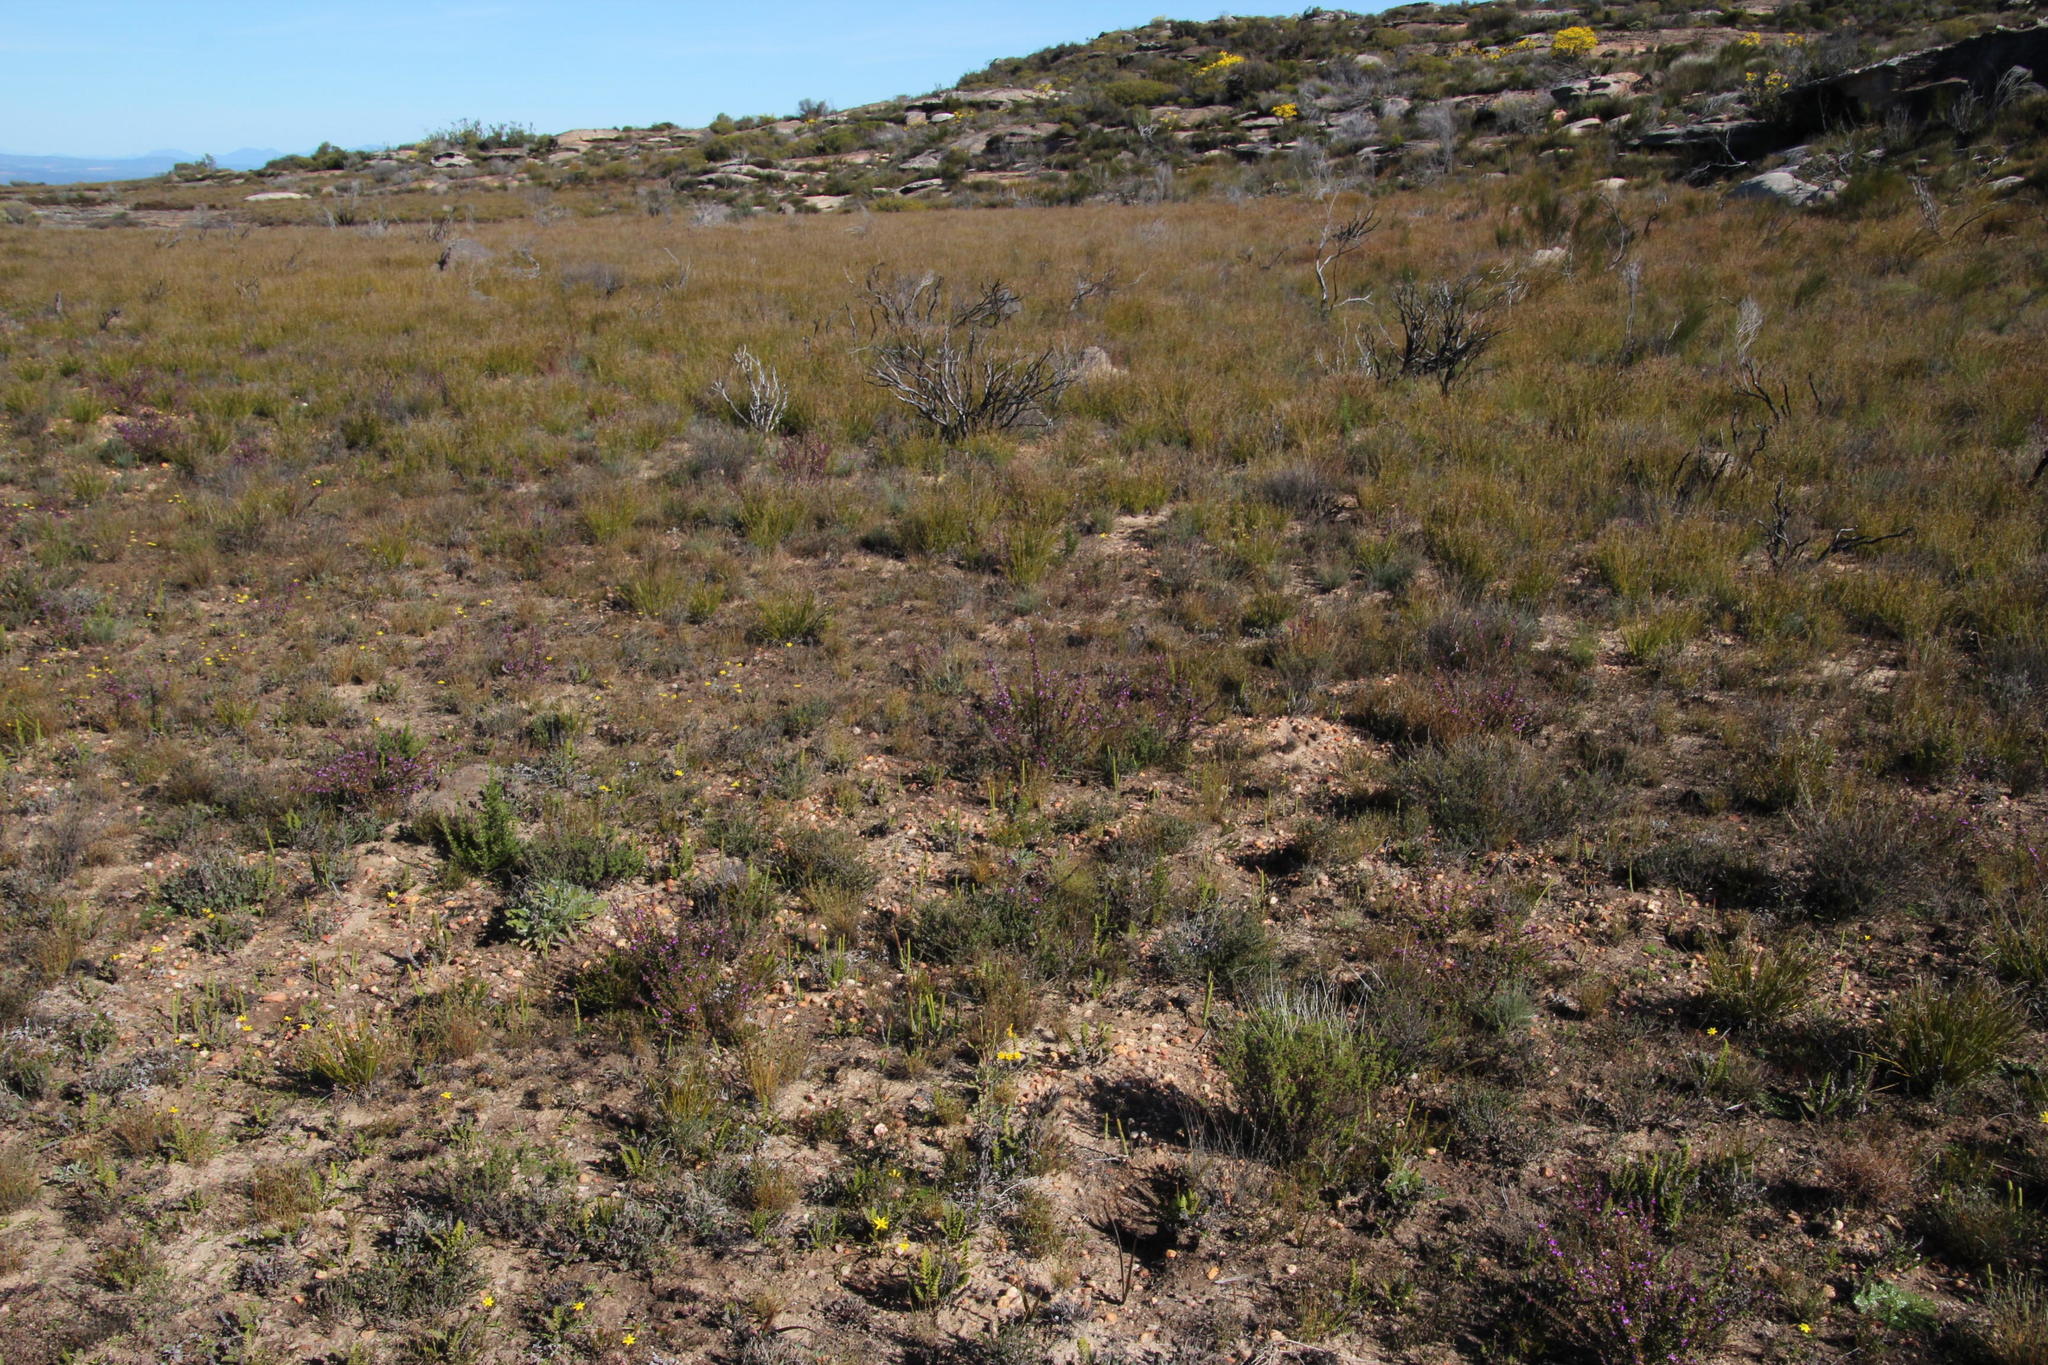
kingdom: Plantae
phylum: Tracheophyta
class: Magnoliopsida
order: Fabales
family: Polygalaceae
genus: Muraltia
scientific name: Muraltia heisteria
